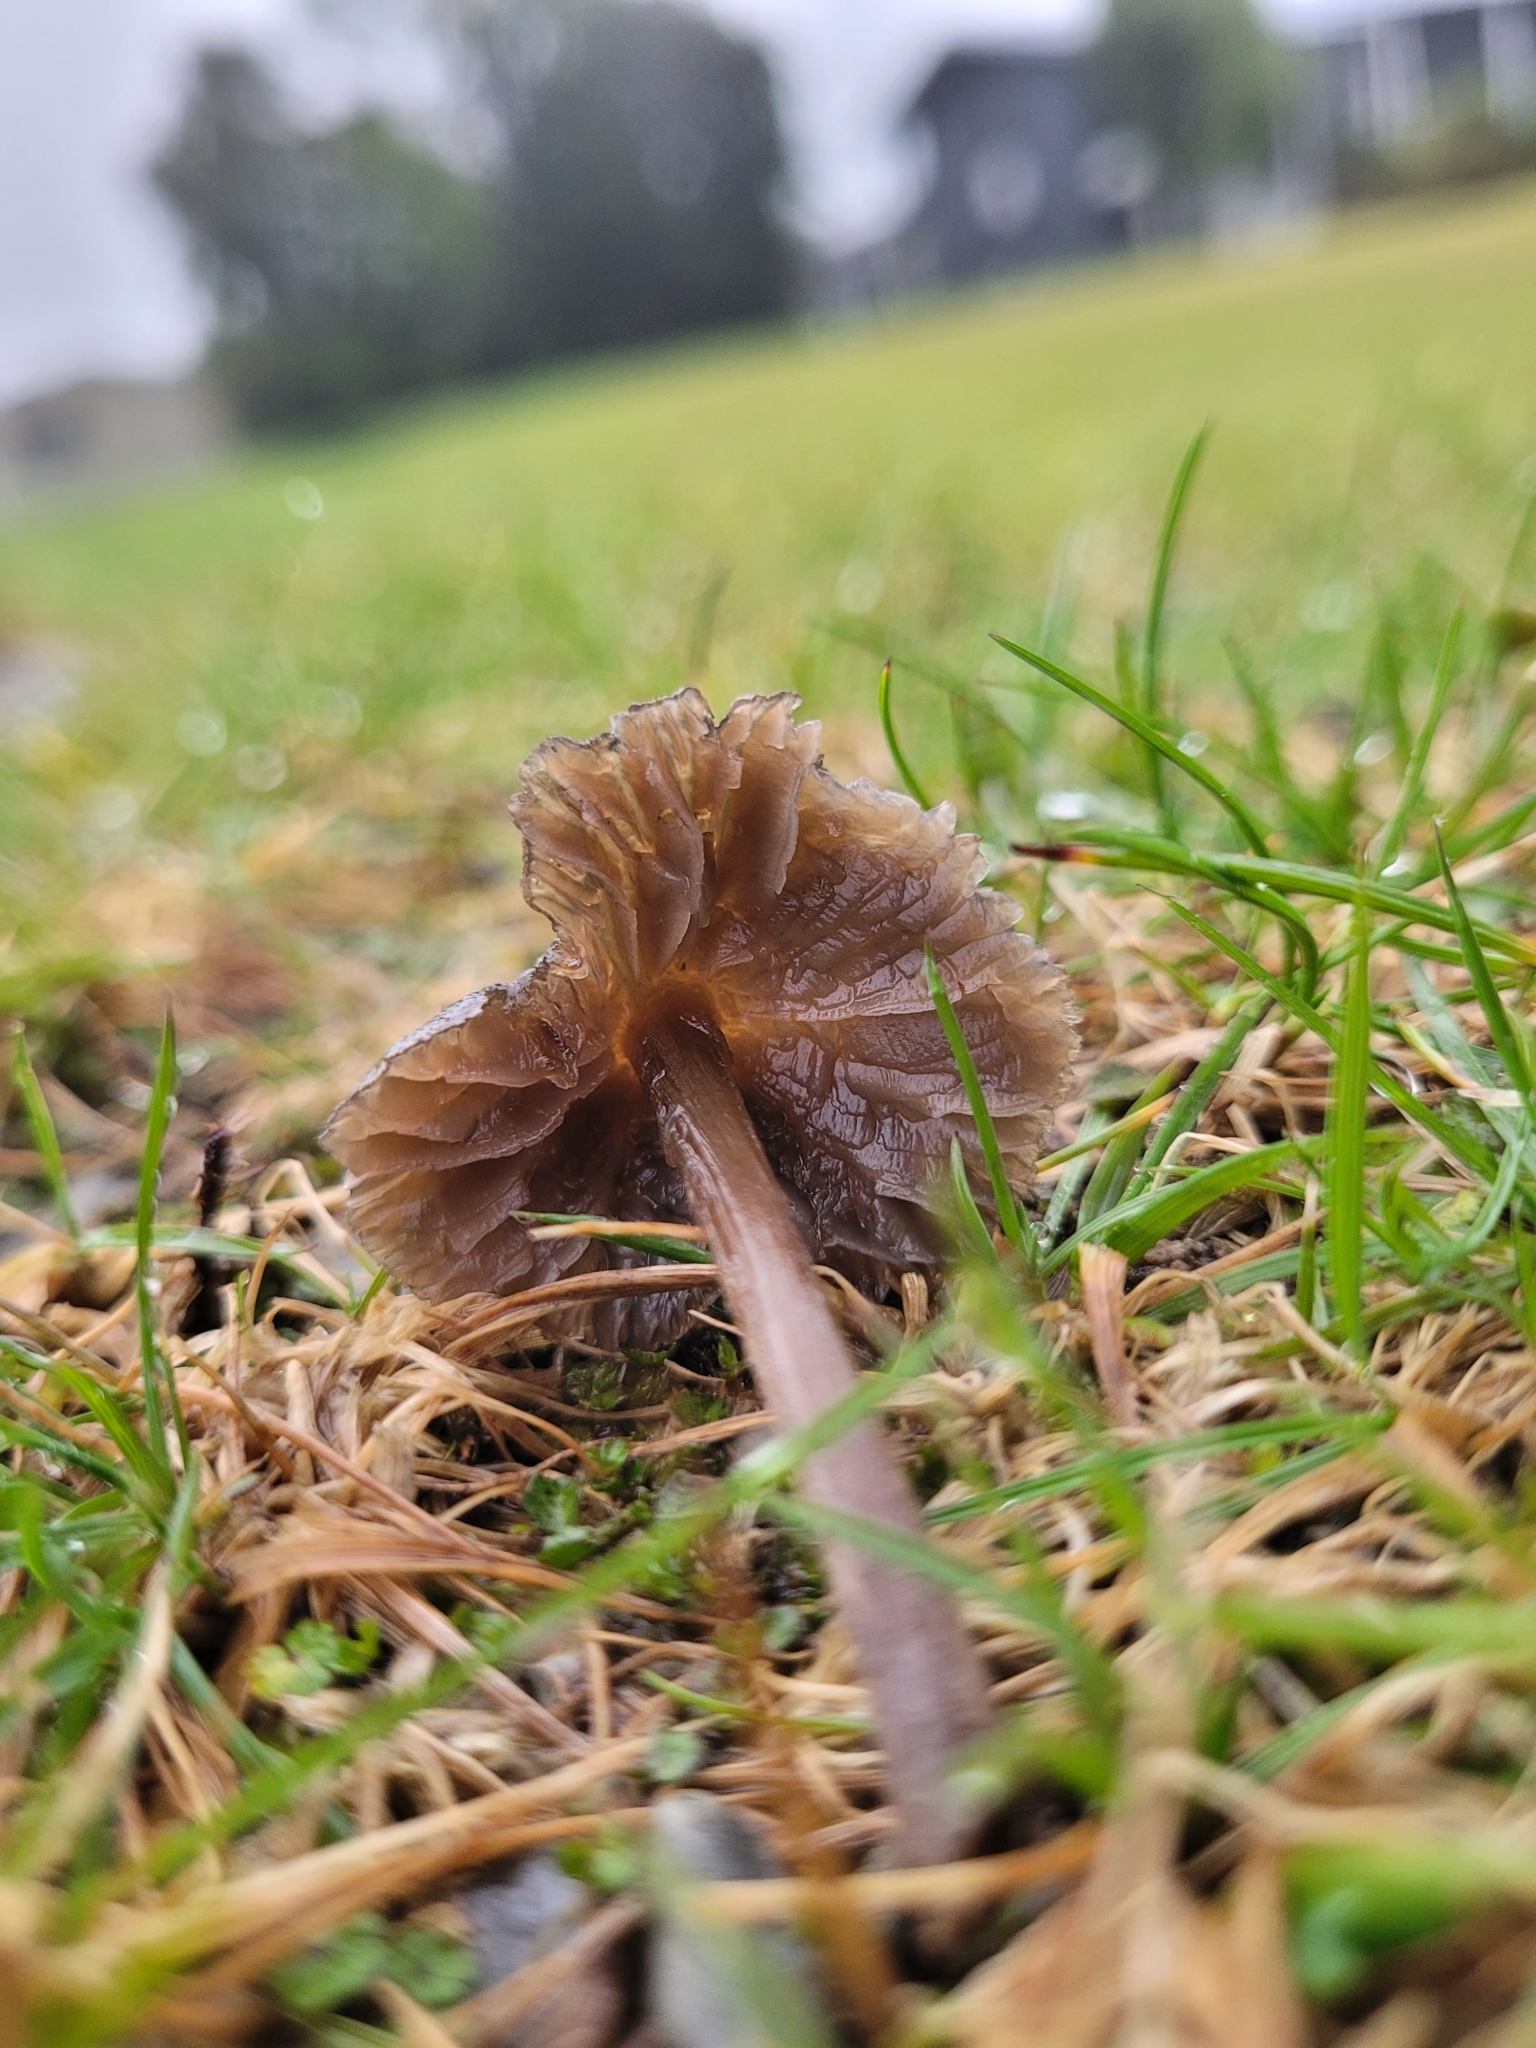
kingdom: Fungi
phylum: Basidiomycota
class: Agaricomycetes
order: Agaricales
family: Entolomataceae
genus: Entoloma
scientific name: Entoloma perzonatum
